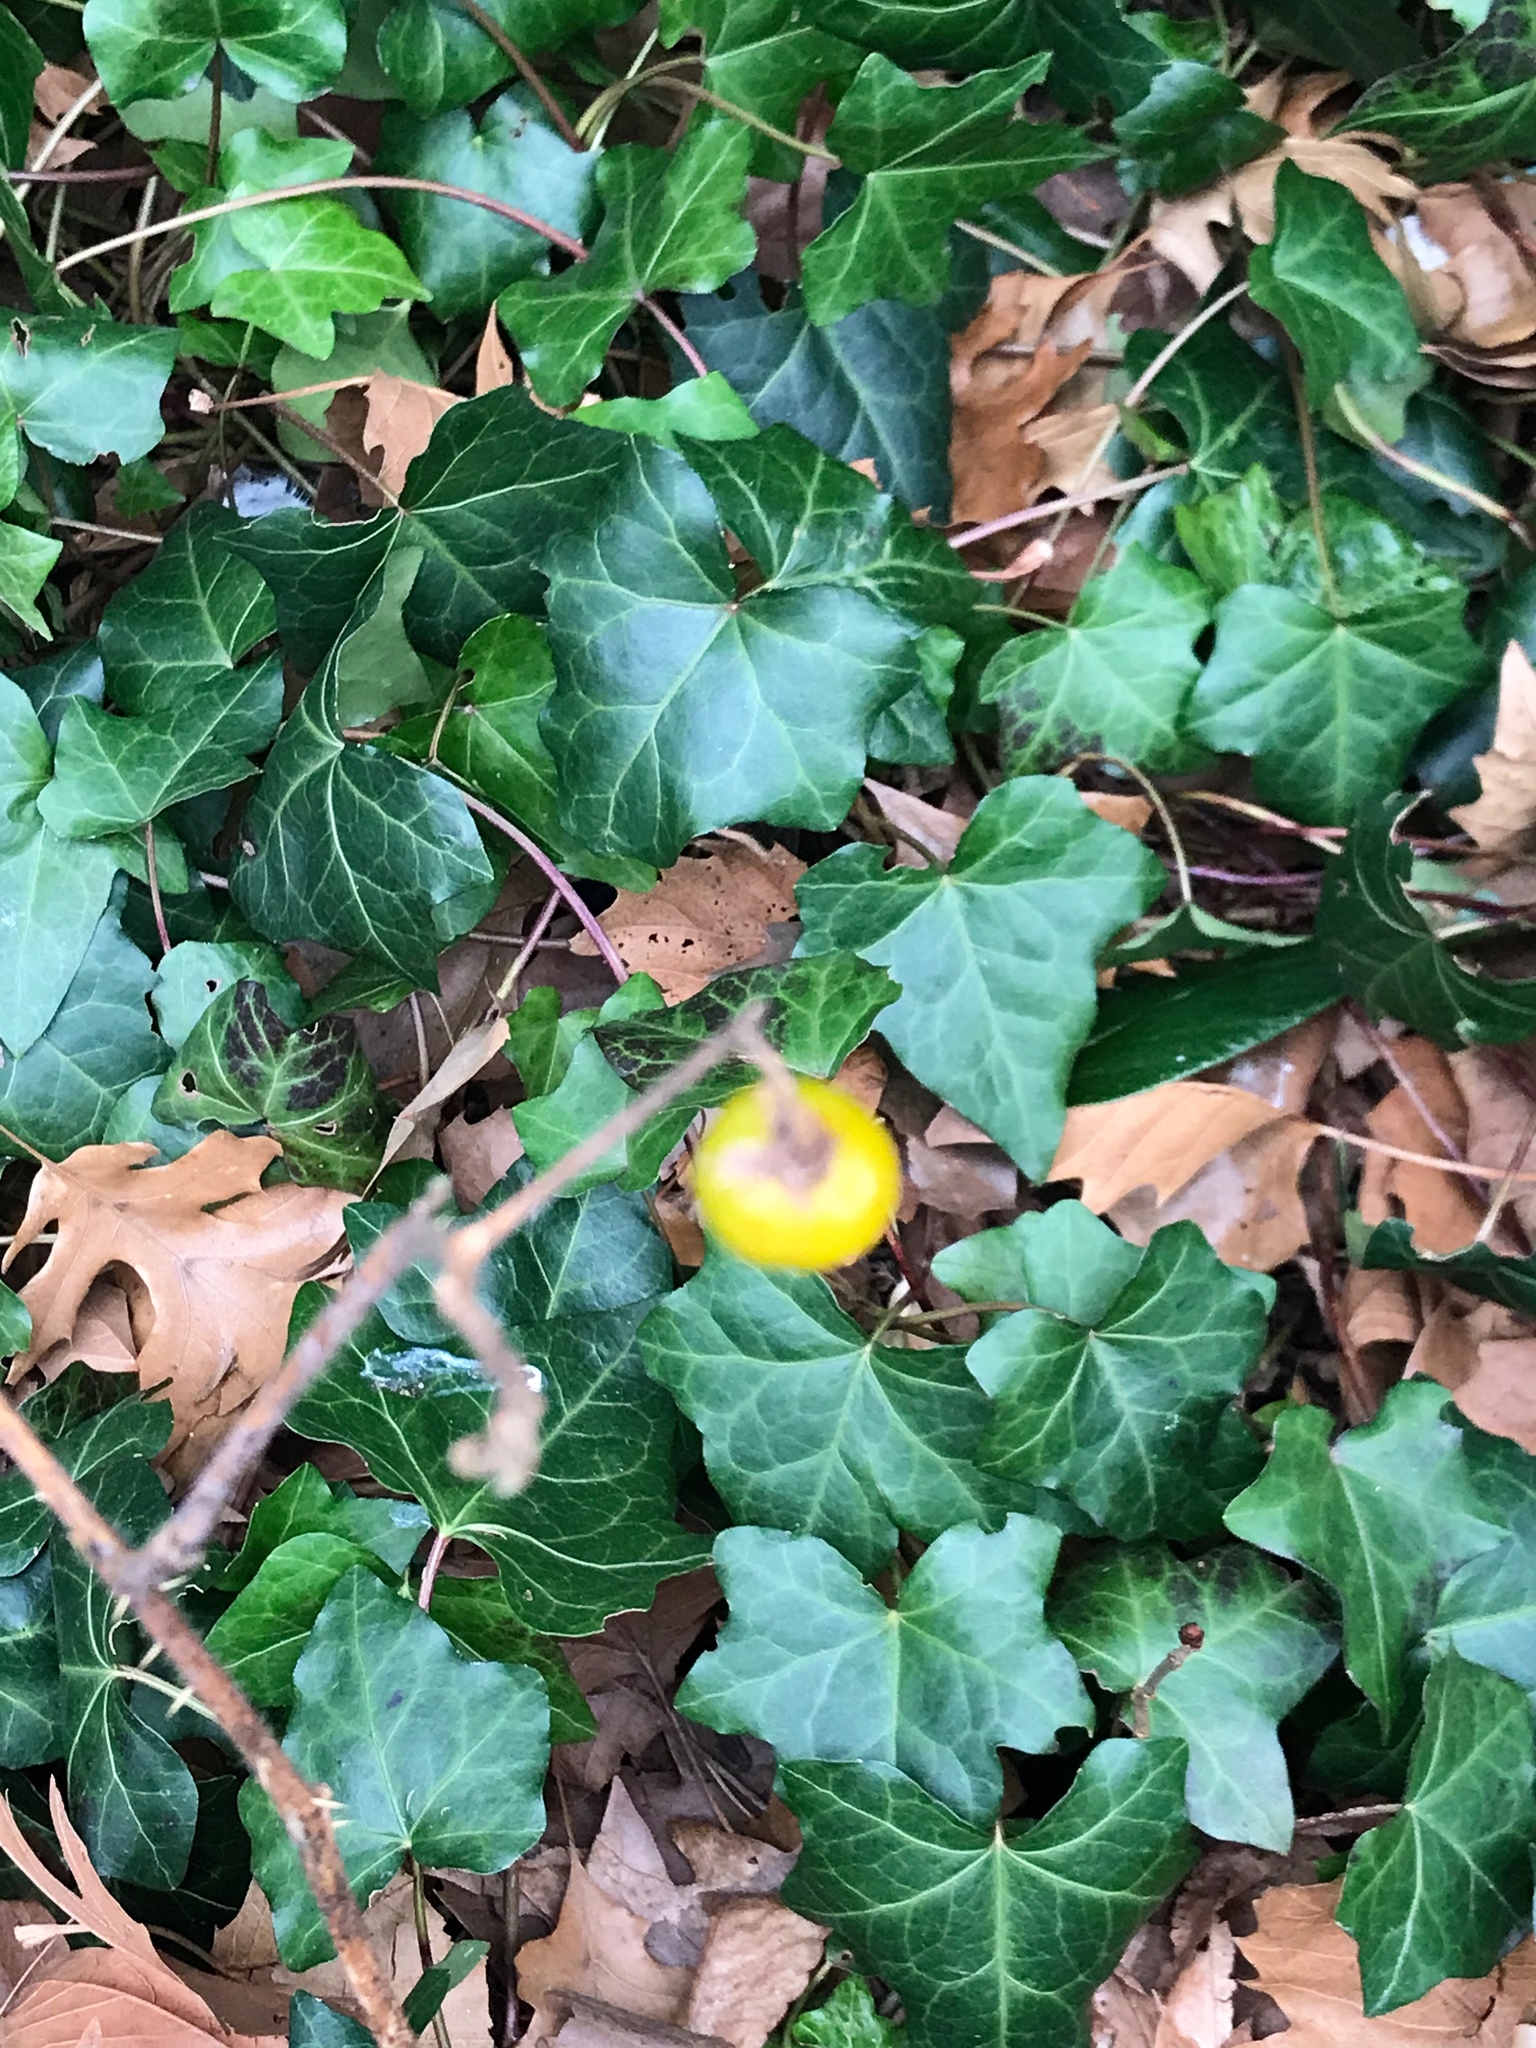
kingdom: Plantae
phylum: Tracheophyta
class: Magnoliopsida
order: Solanales
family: Solanaceae
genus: Solanum
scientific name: Solanum carolinense
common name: Horse-nettle
